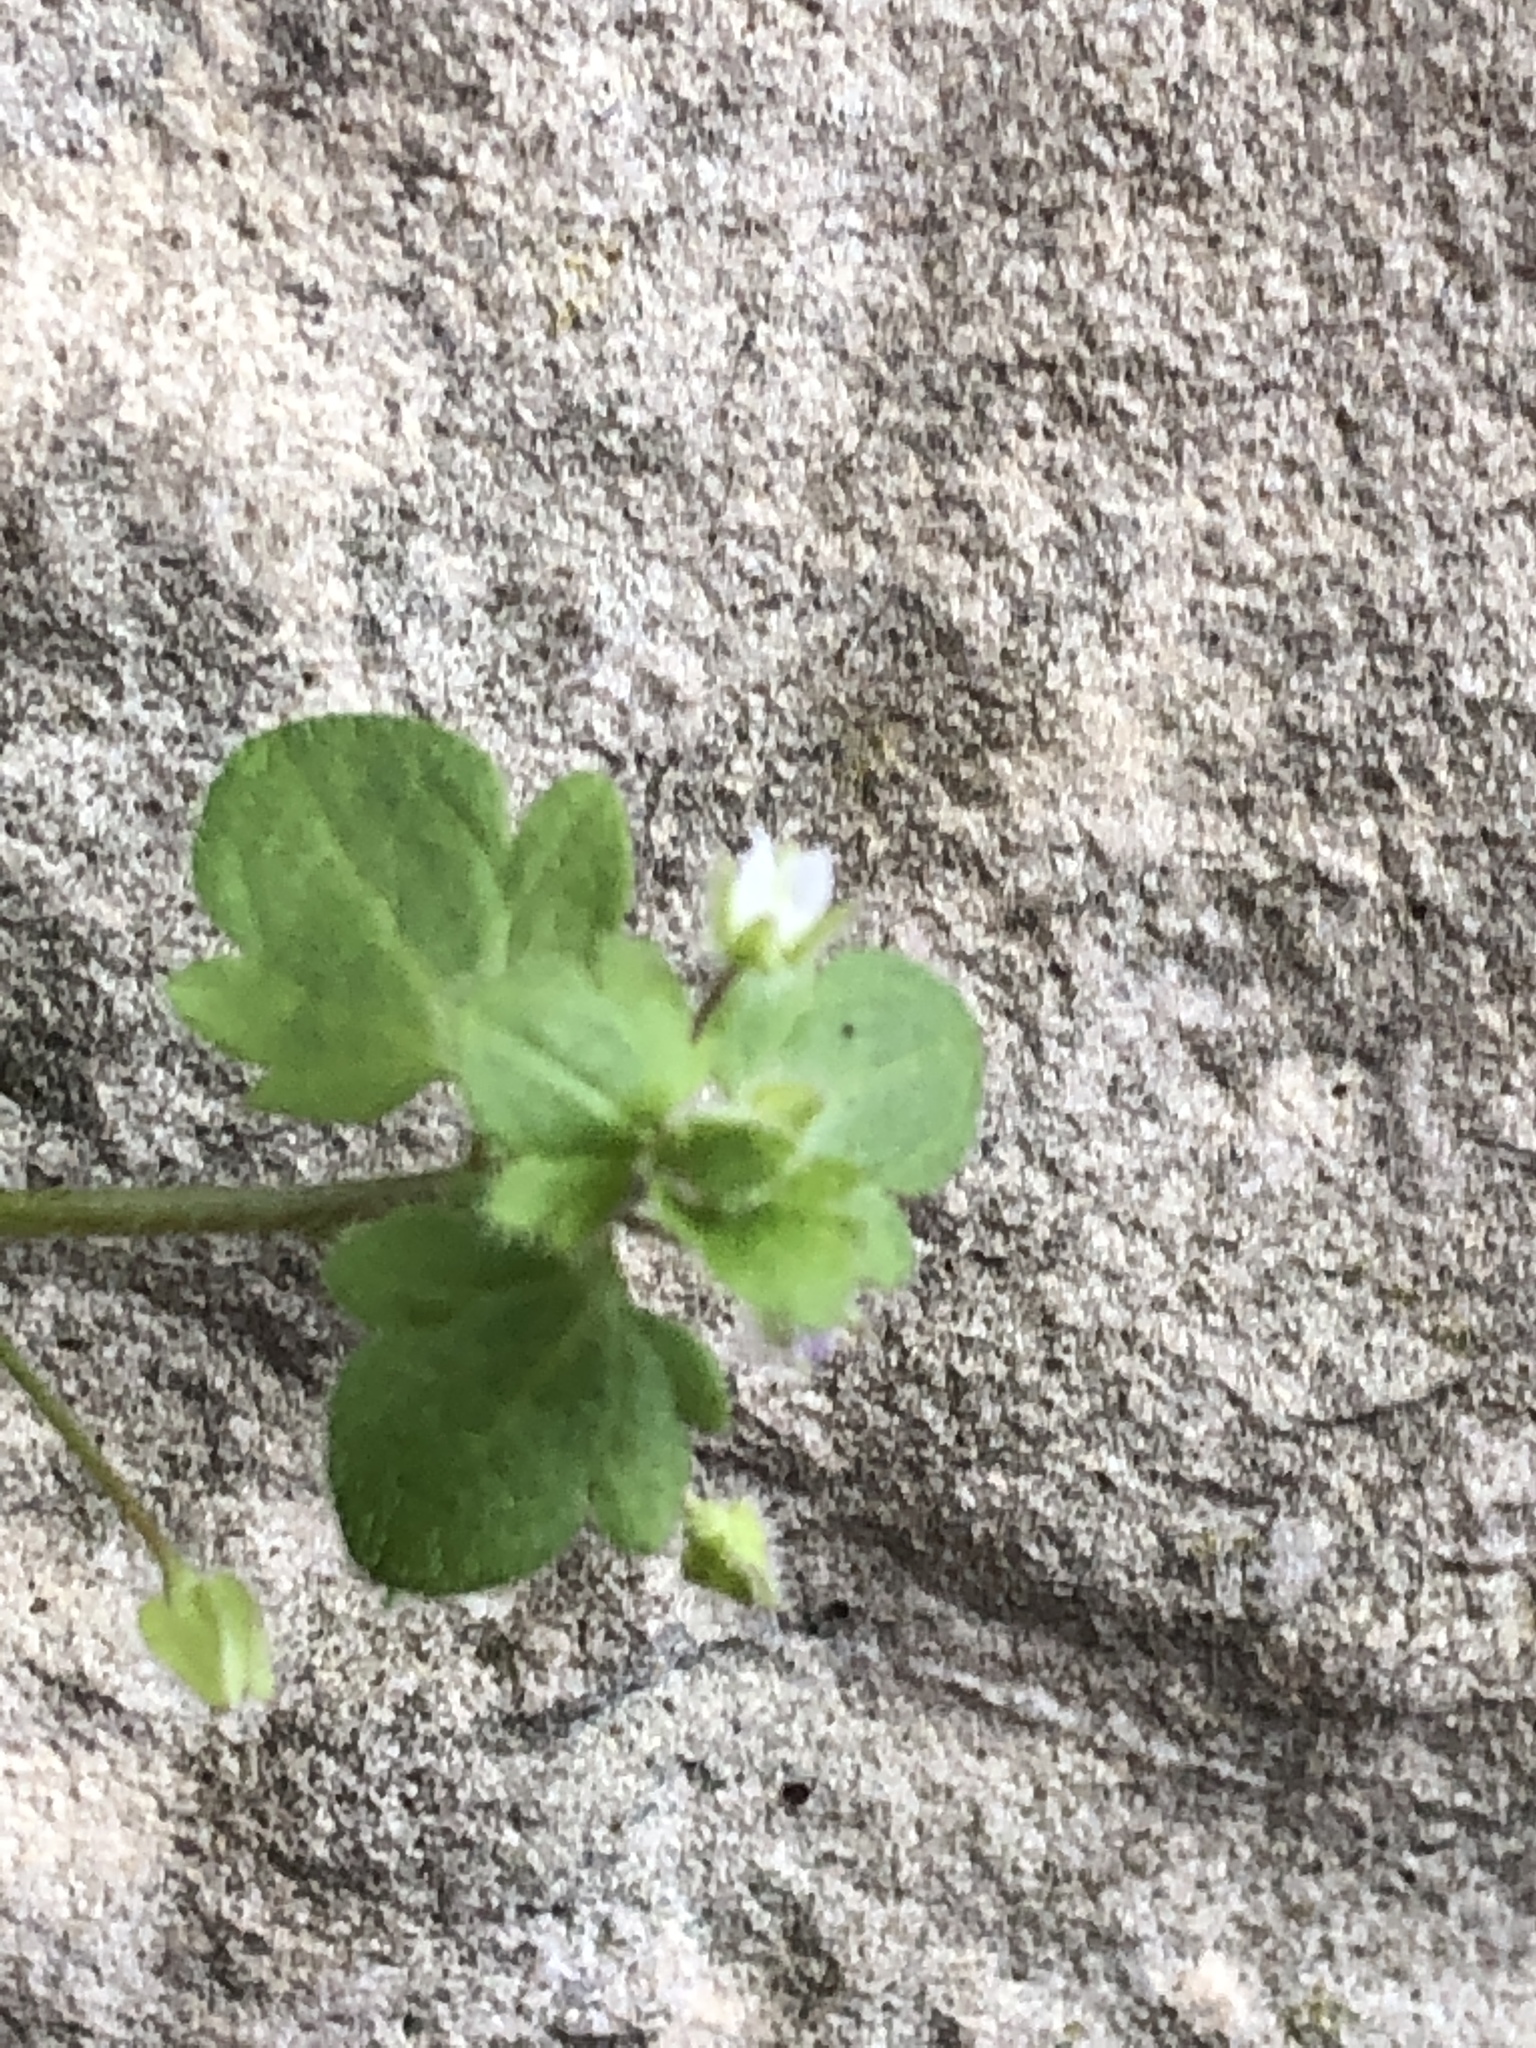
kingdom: Plantae
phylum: Tracheophyta
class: Magnoliopsida
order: Lamiales
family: Plantaginaceae
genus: Veronica
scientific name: Veronica sublobata
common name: False ivy-leaved speedwell
